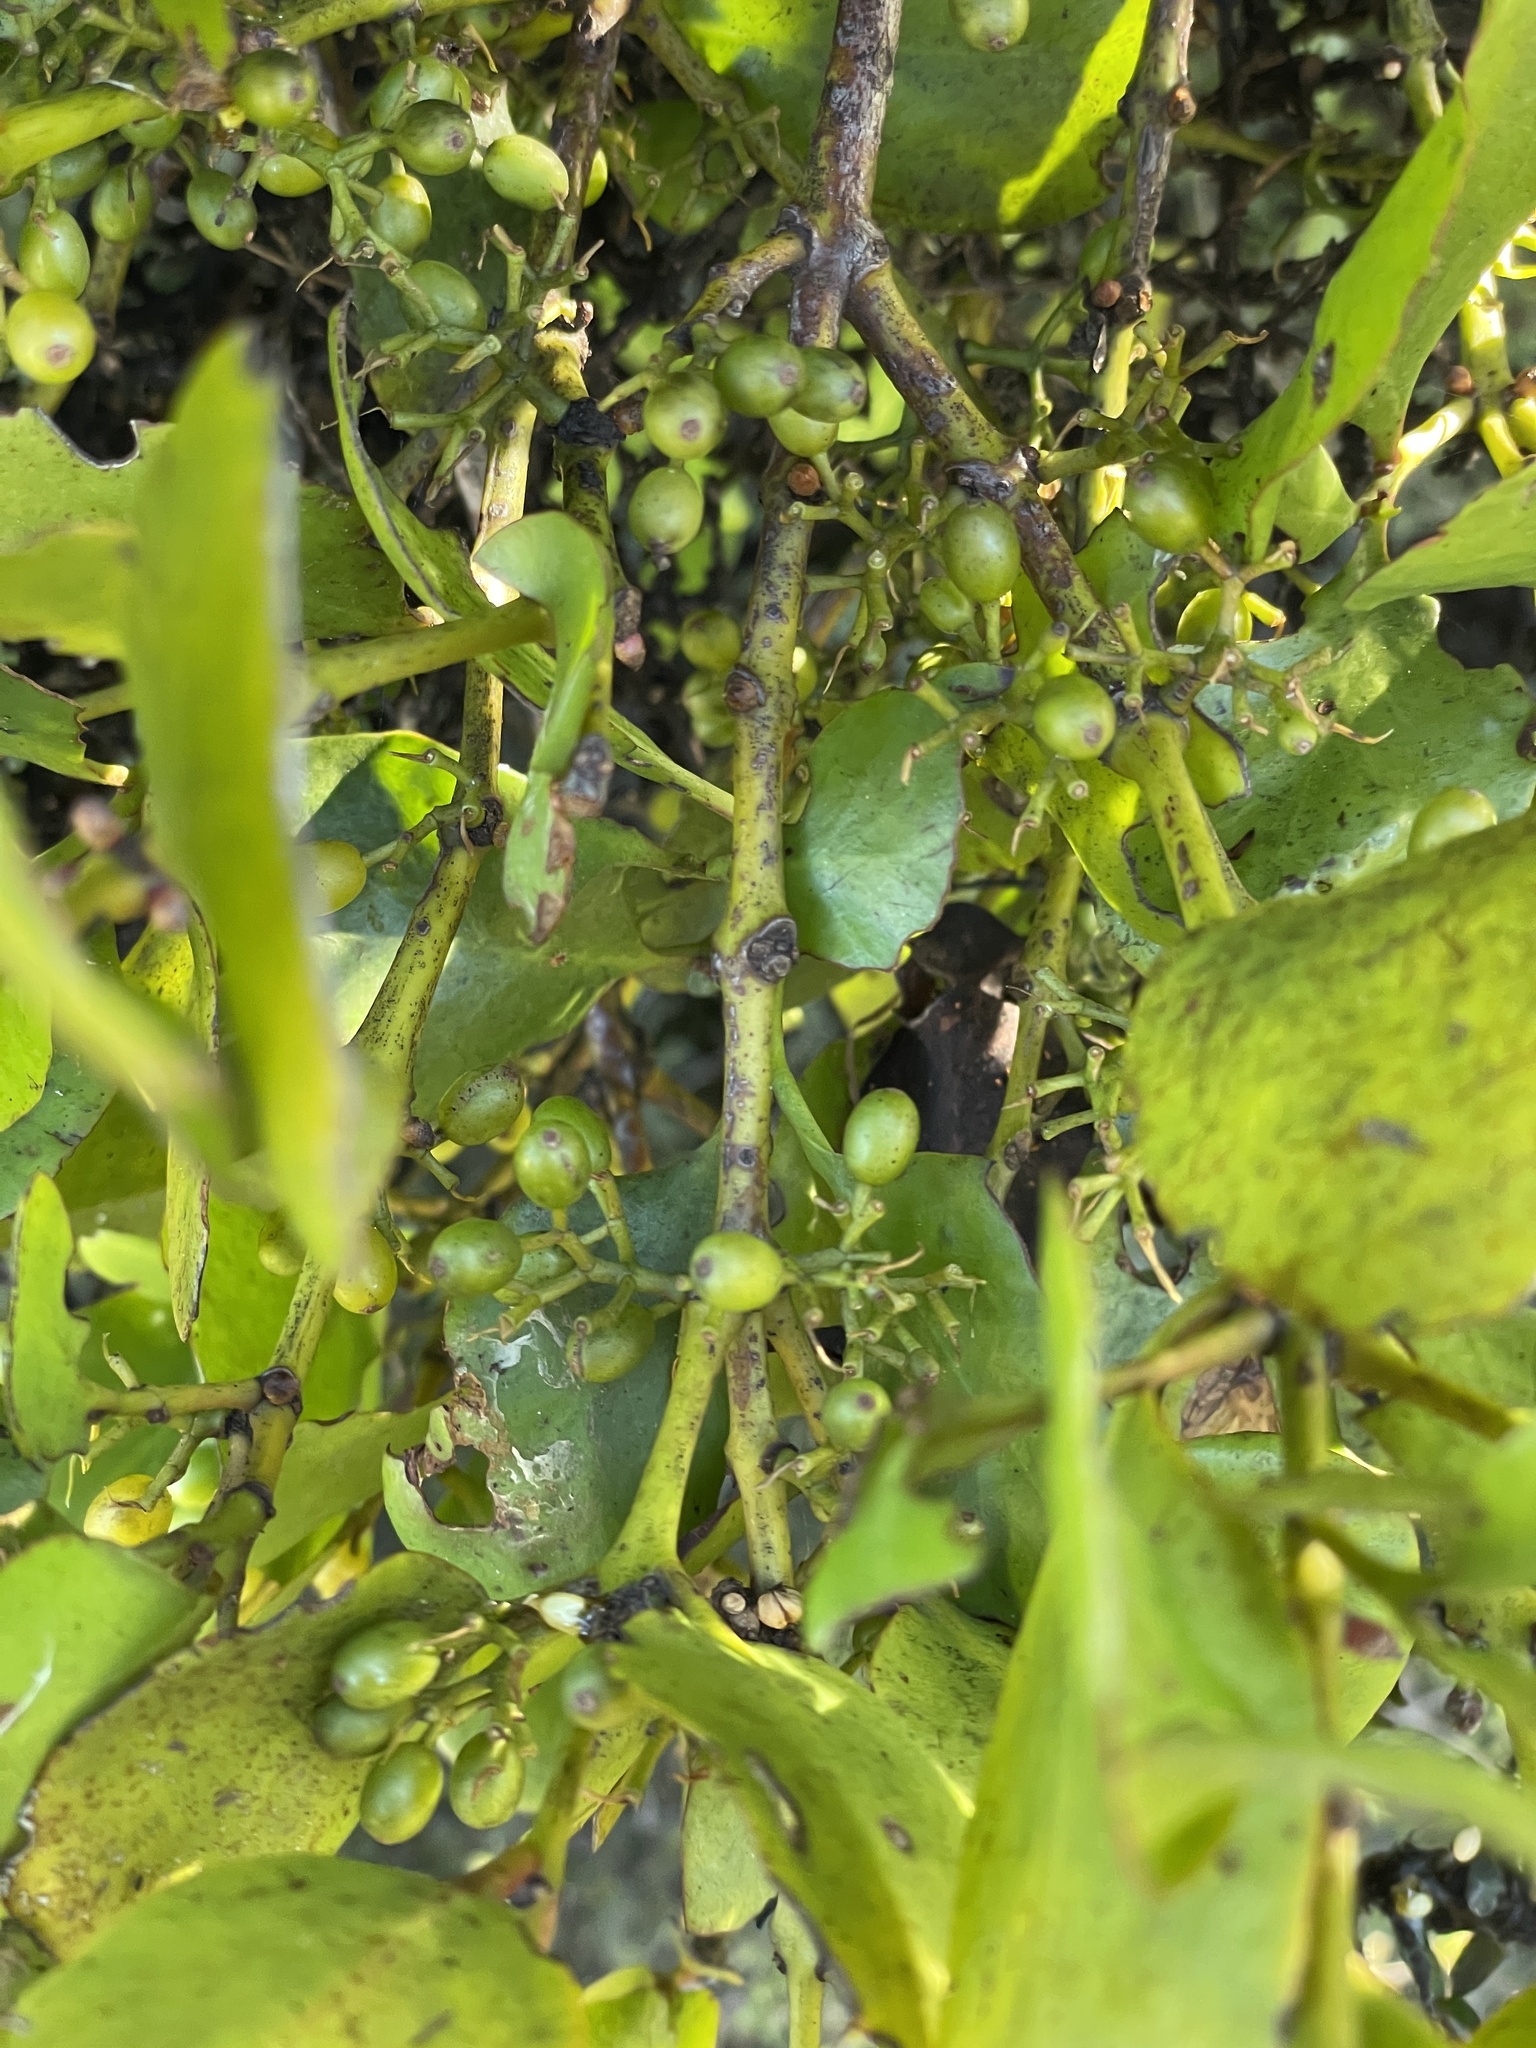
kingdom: Plantae
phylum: Tracheophyta
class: Magnoliopsida
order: Santalales
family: Loranthaceae
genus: Ileostylus
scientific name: Ileostylus micranthus
